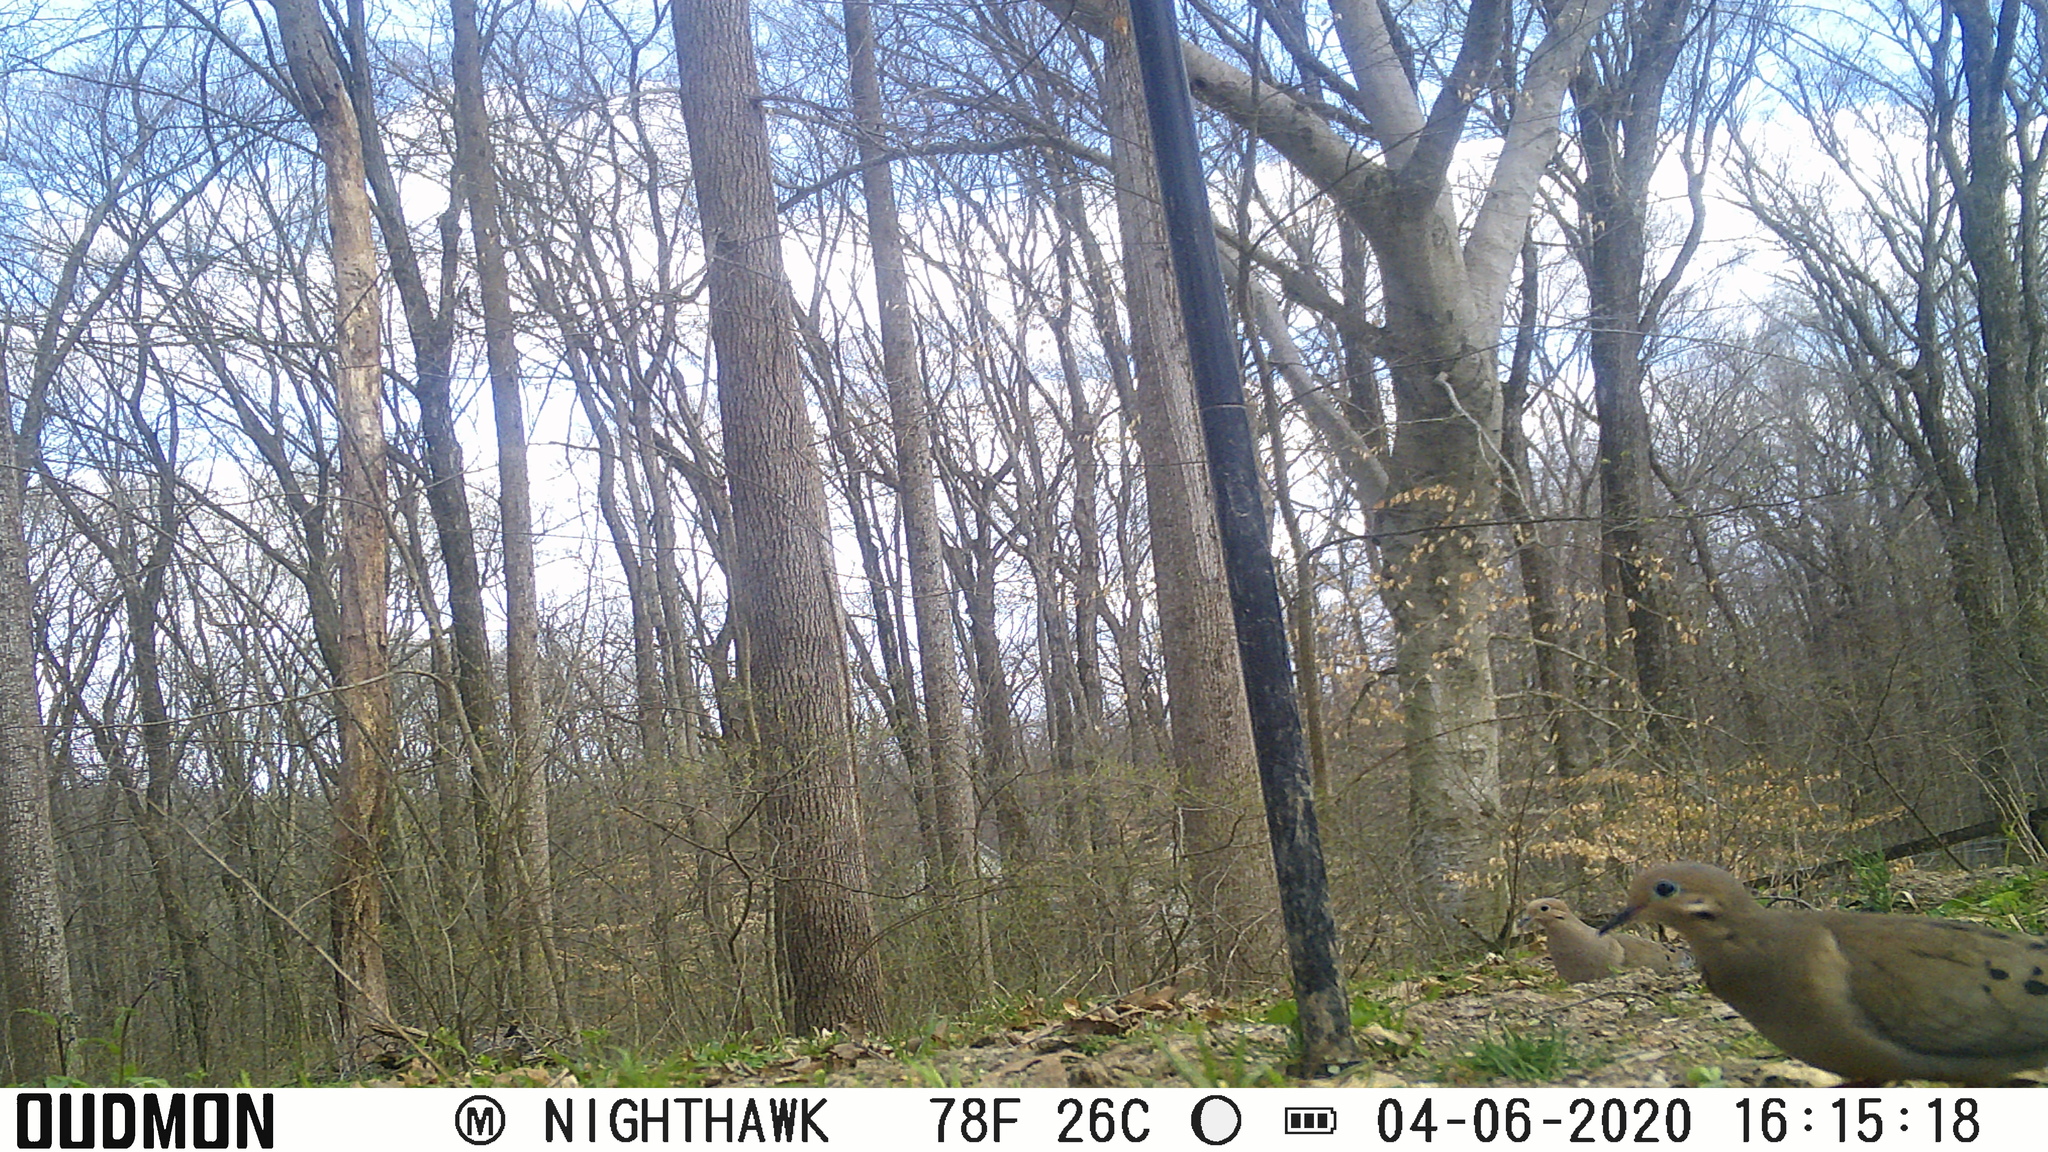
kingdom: Animalia
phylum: Chordata
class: Aves
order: Columbiformes
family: Columbidae
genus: Zenaida
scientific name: Zenaida macroura
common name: Mourning dove
